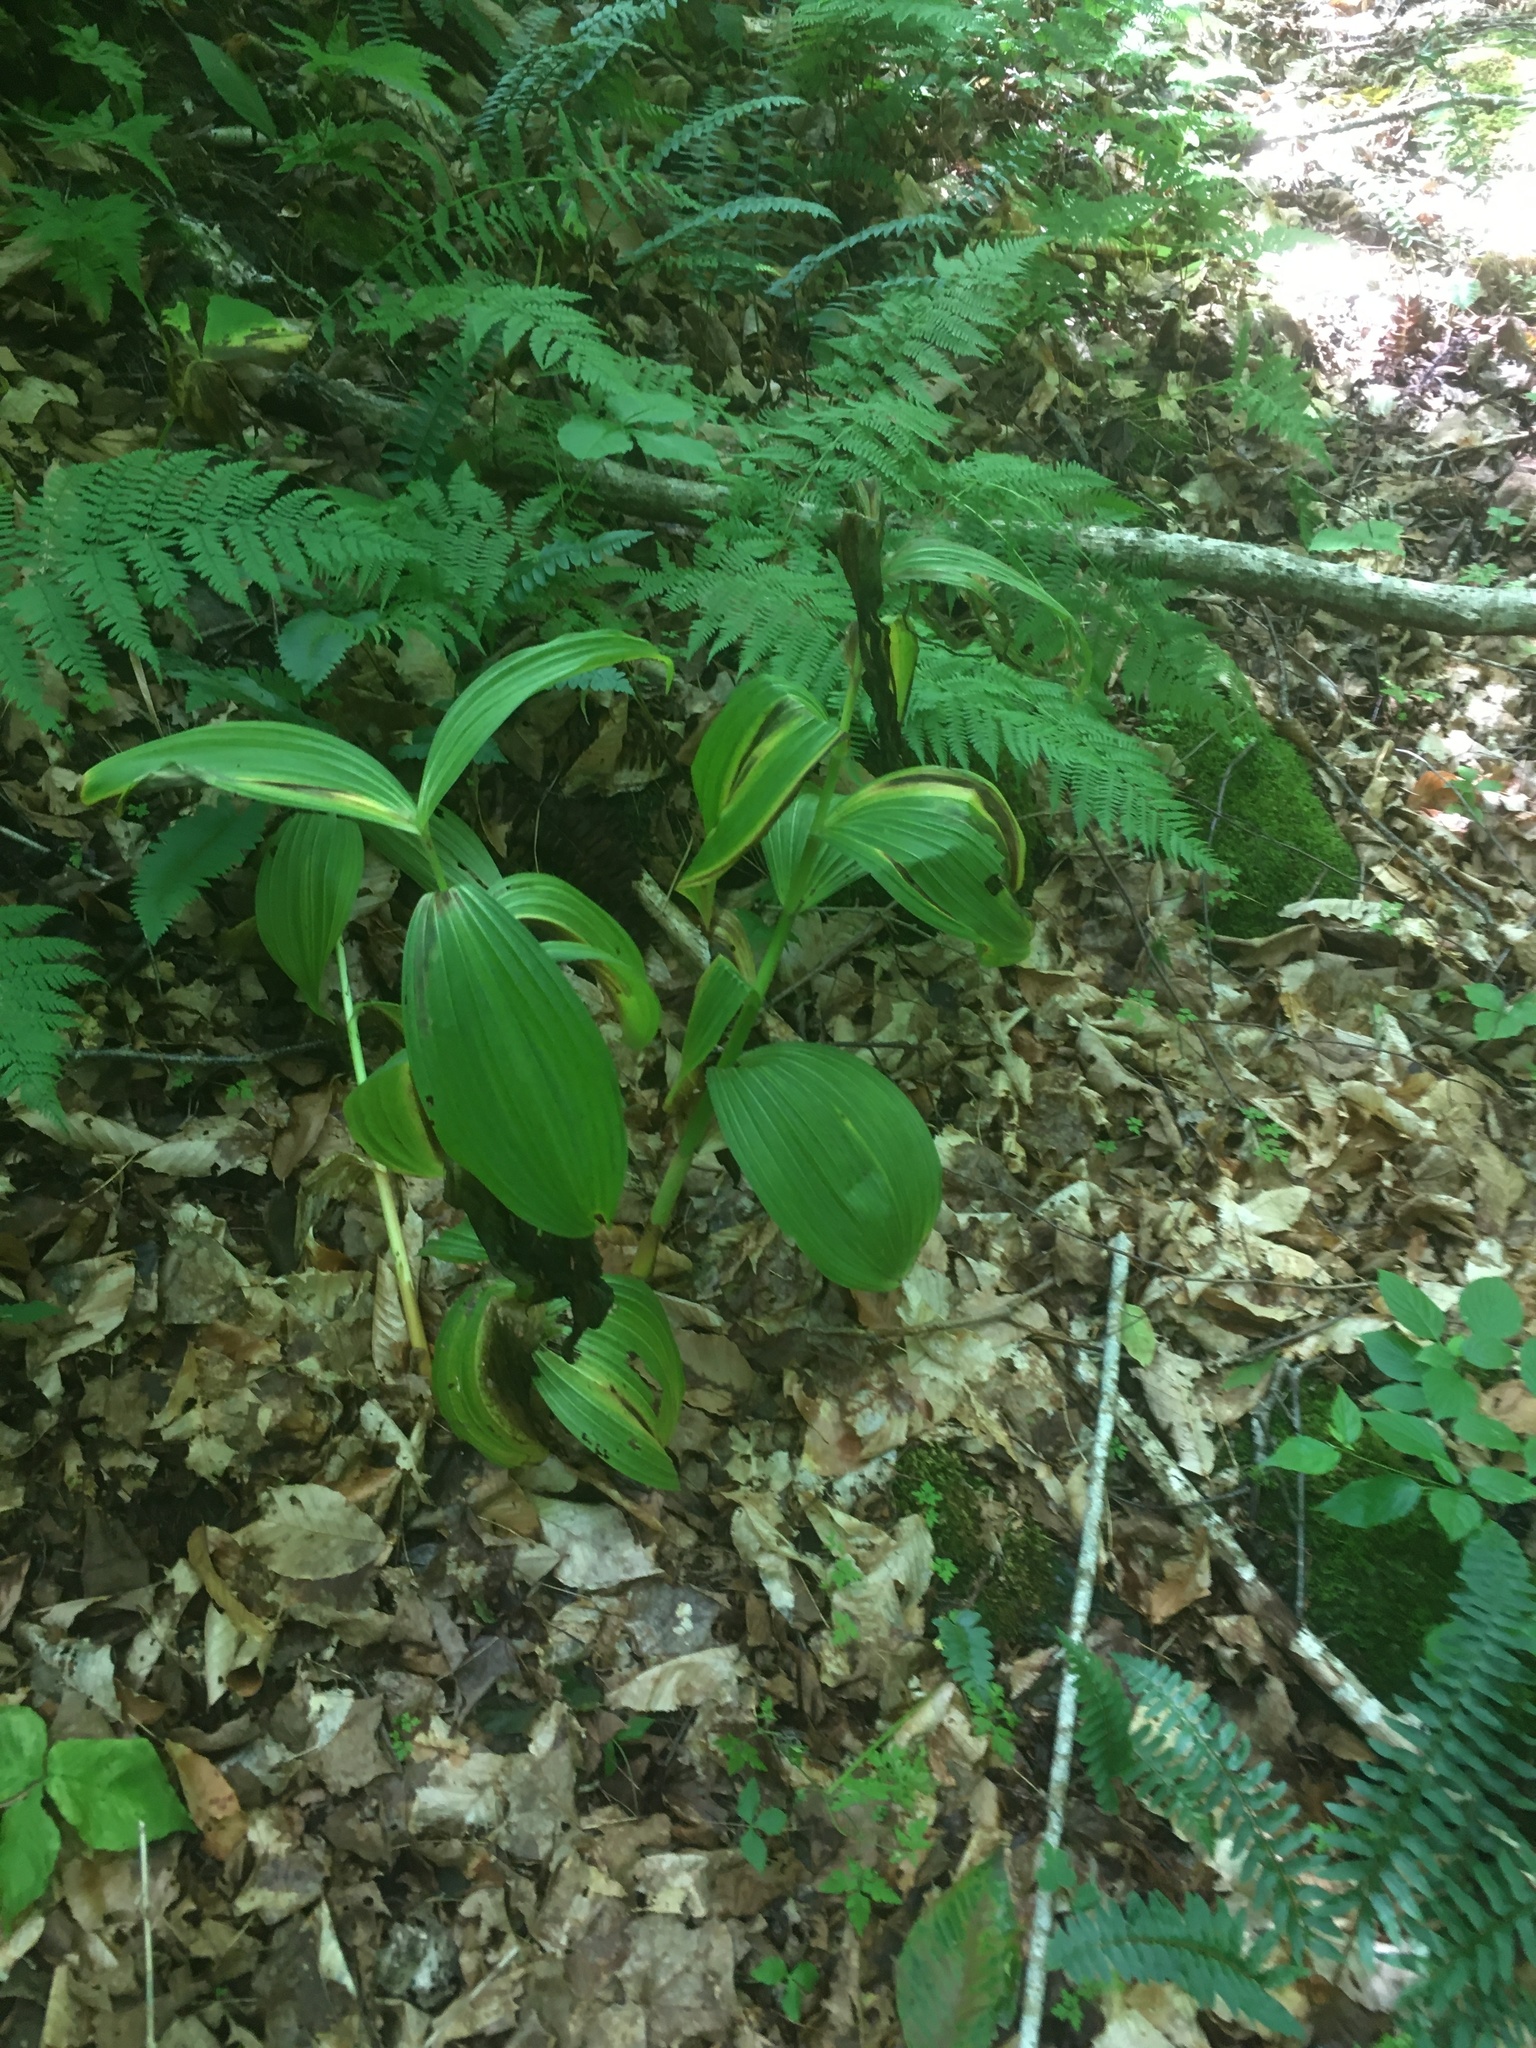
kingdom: Plantae
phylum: Tracheophyta
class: Liliopsida
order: Liliales
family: Melanthiaceae
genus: Veratrum
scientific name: Veratrum viride
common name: American false hellebore
